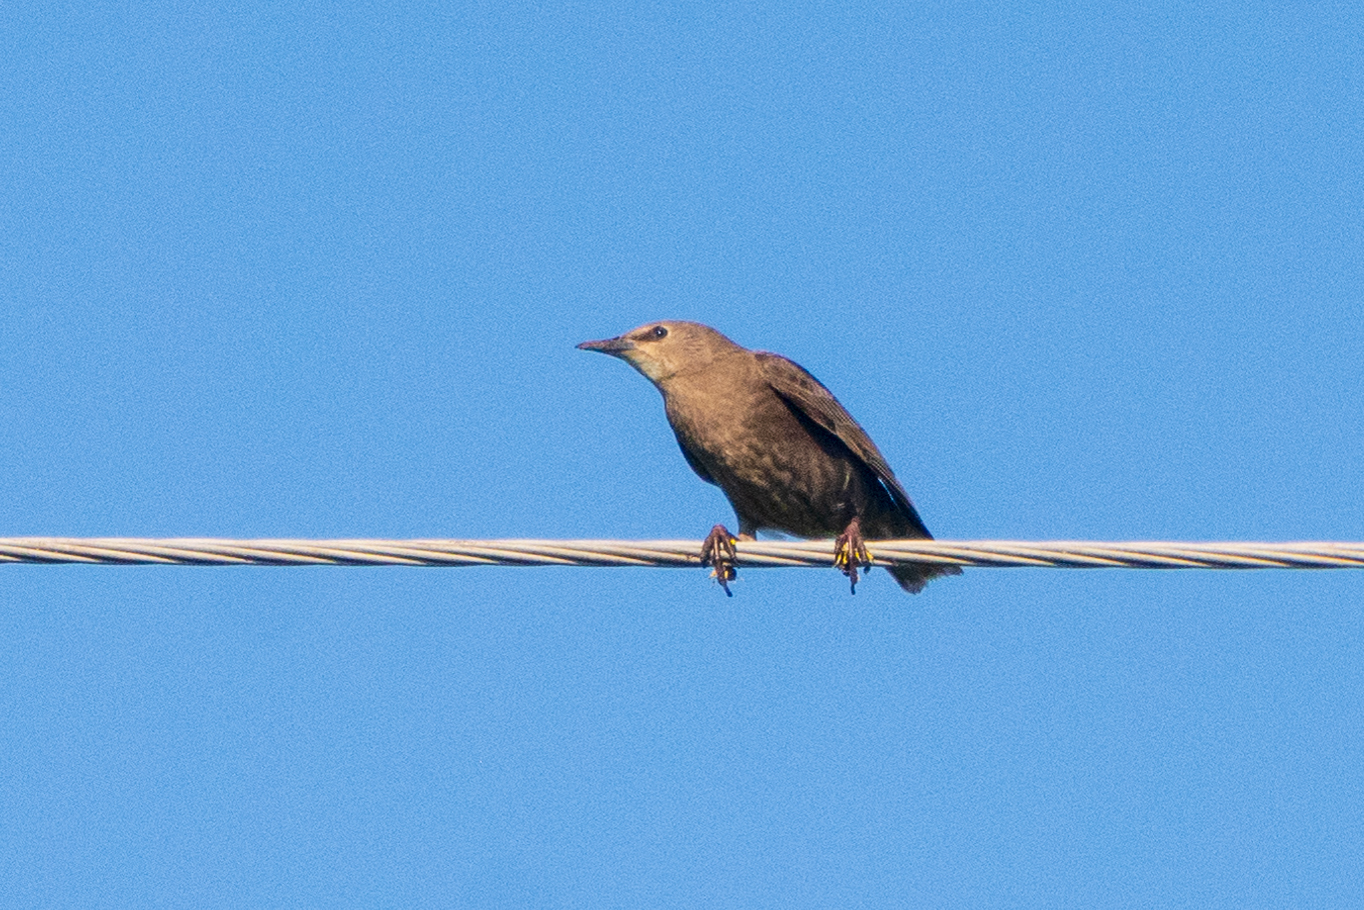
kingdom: Animalia
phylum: Chordata
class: Aves
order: Passeriformes
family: Sturnidae
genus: Sturnus
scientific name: Sturnus vulgaris
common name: Common starling
